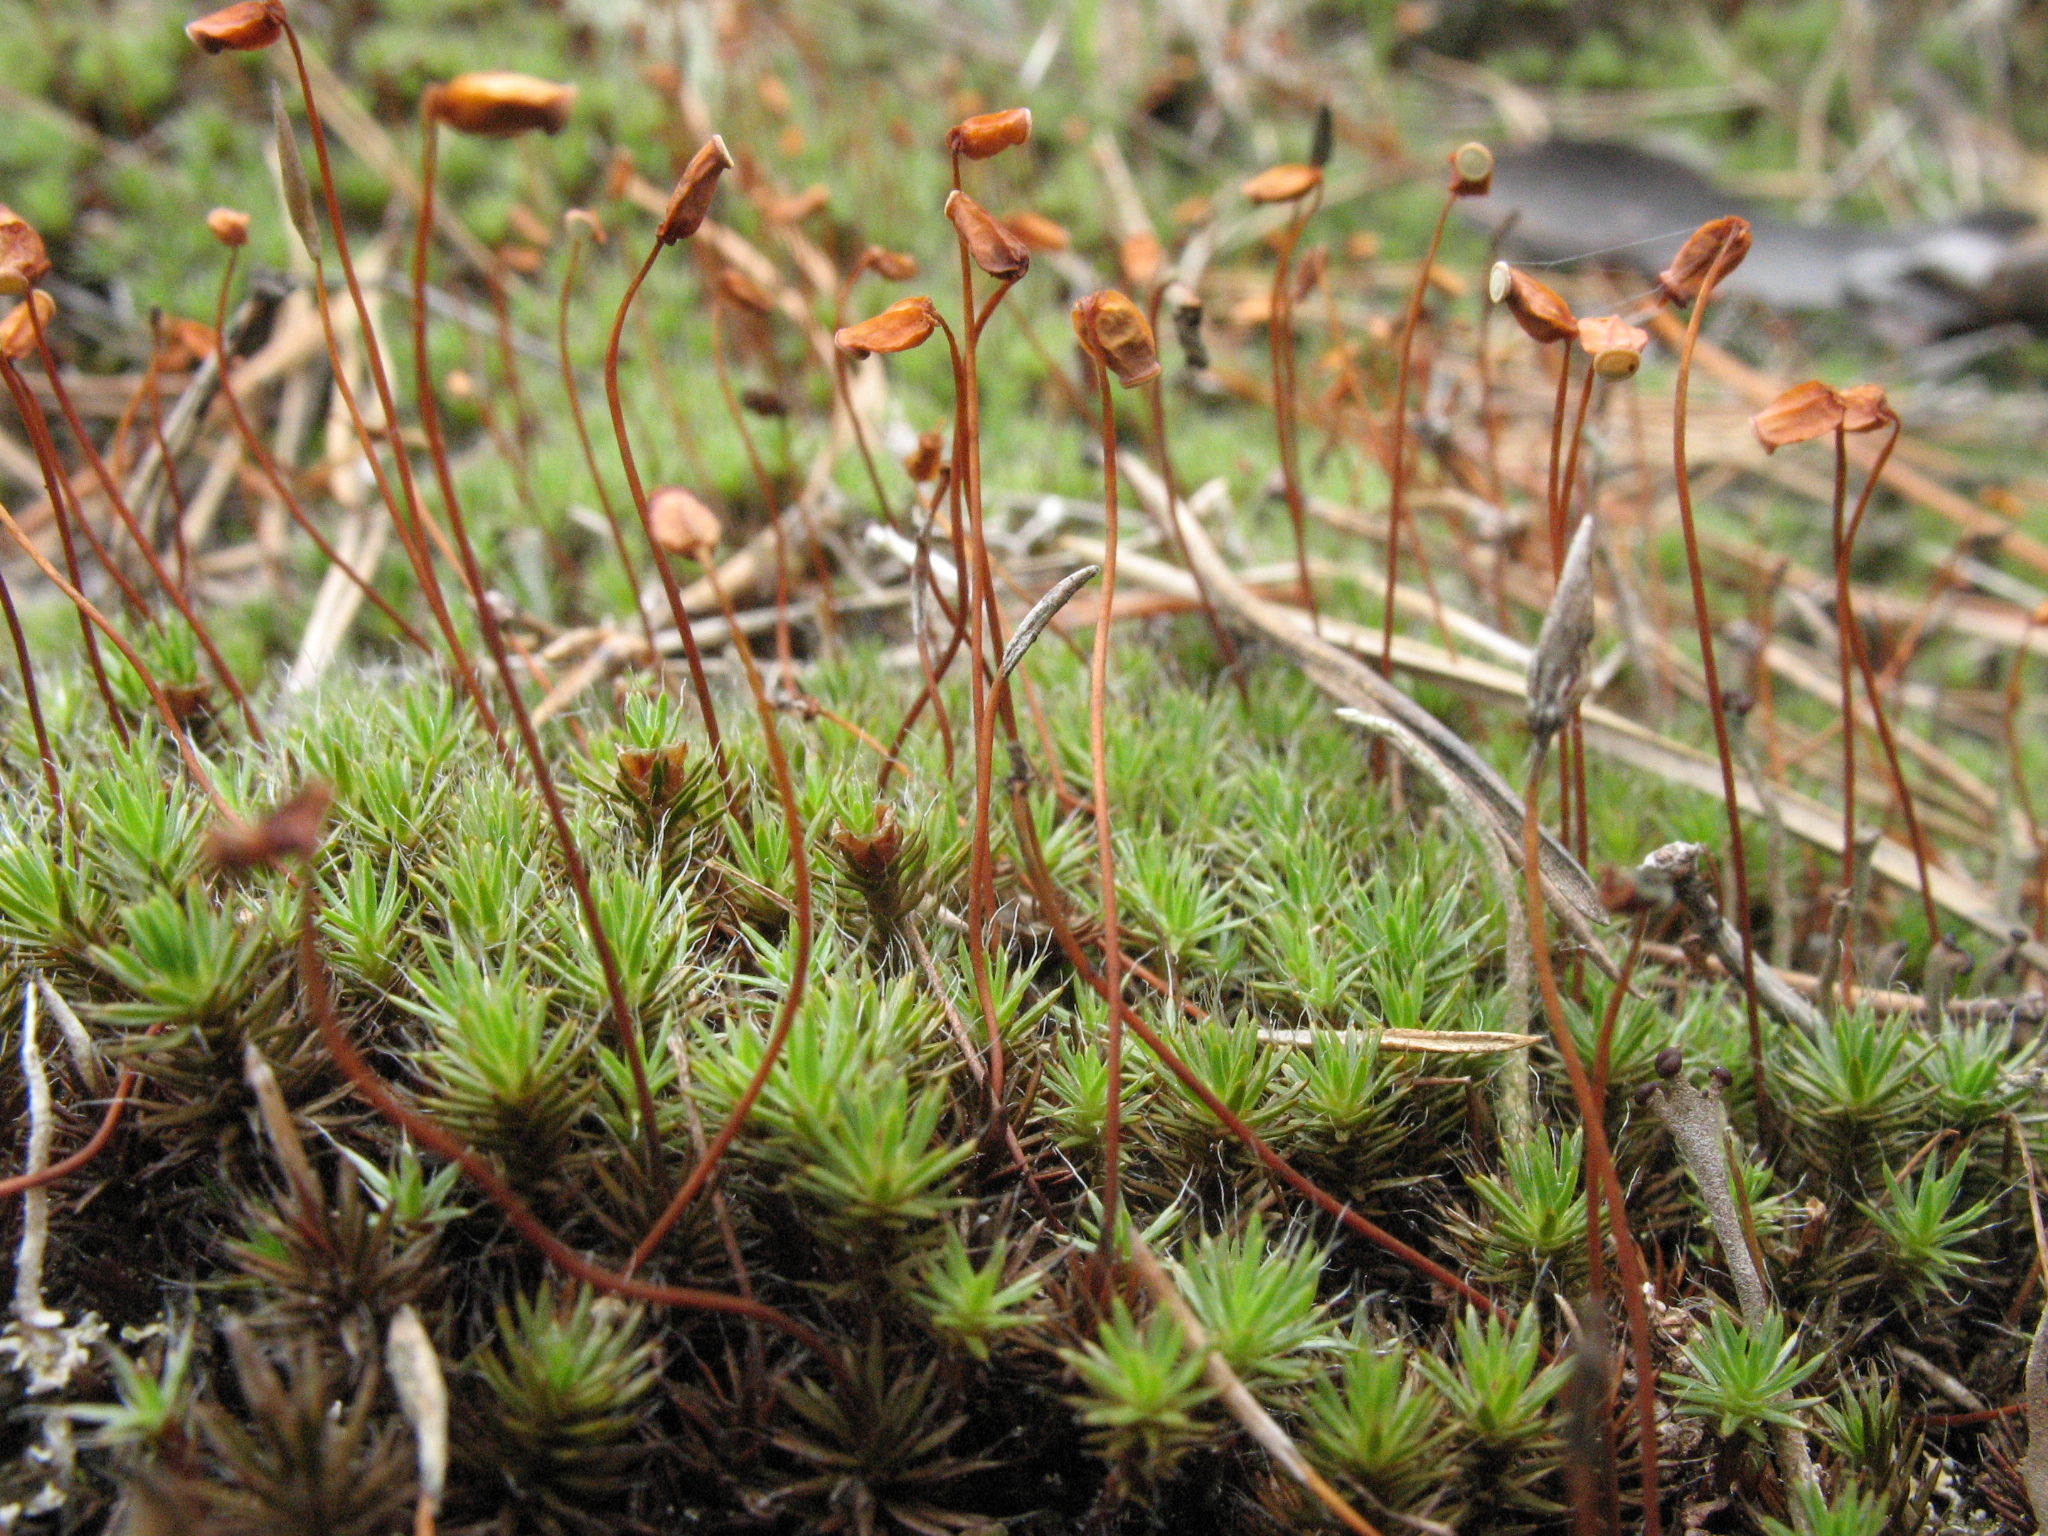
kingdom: Plantae
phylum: Bryophyta
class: Polytrichopsida
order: Polytrichales
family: Polytrichaceae
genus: Polytrichum
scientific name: Polytrichum piliferum
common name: Bristly haircap
